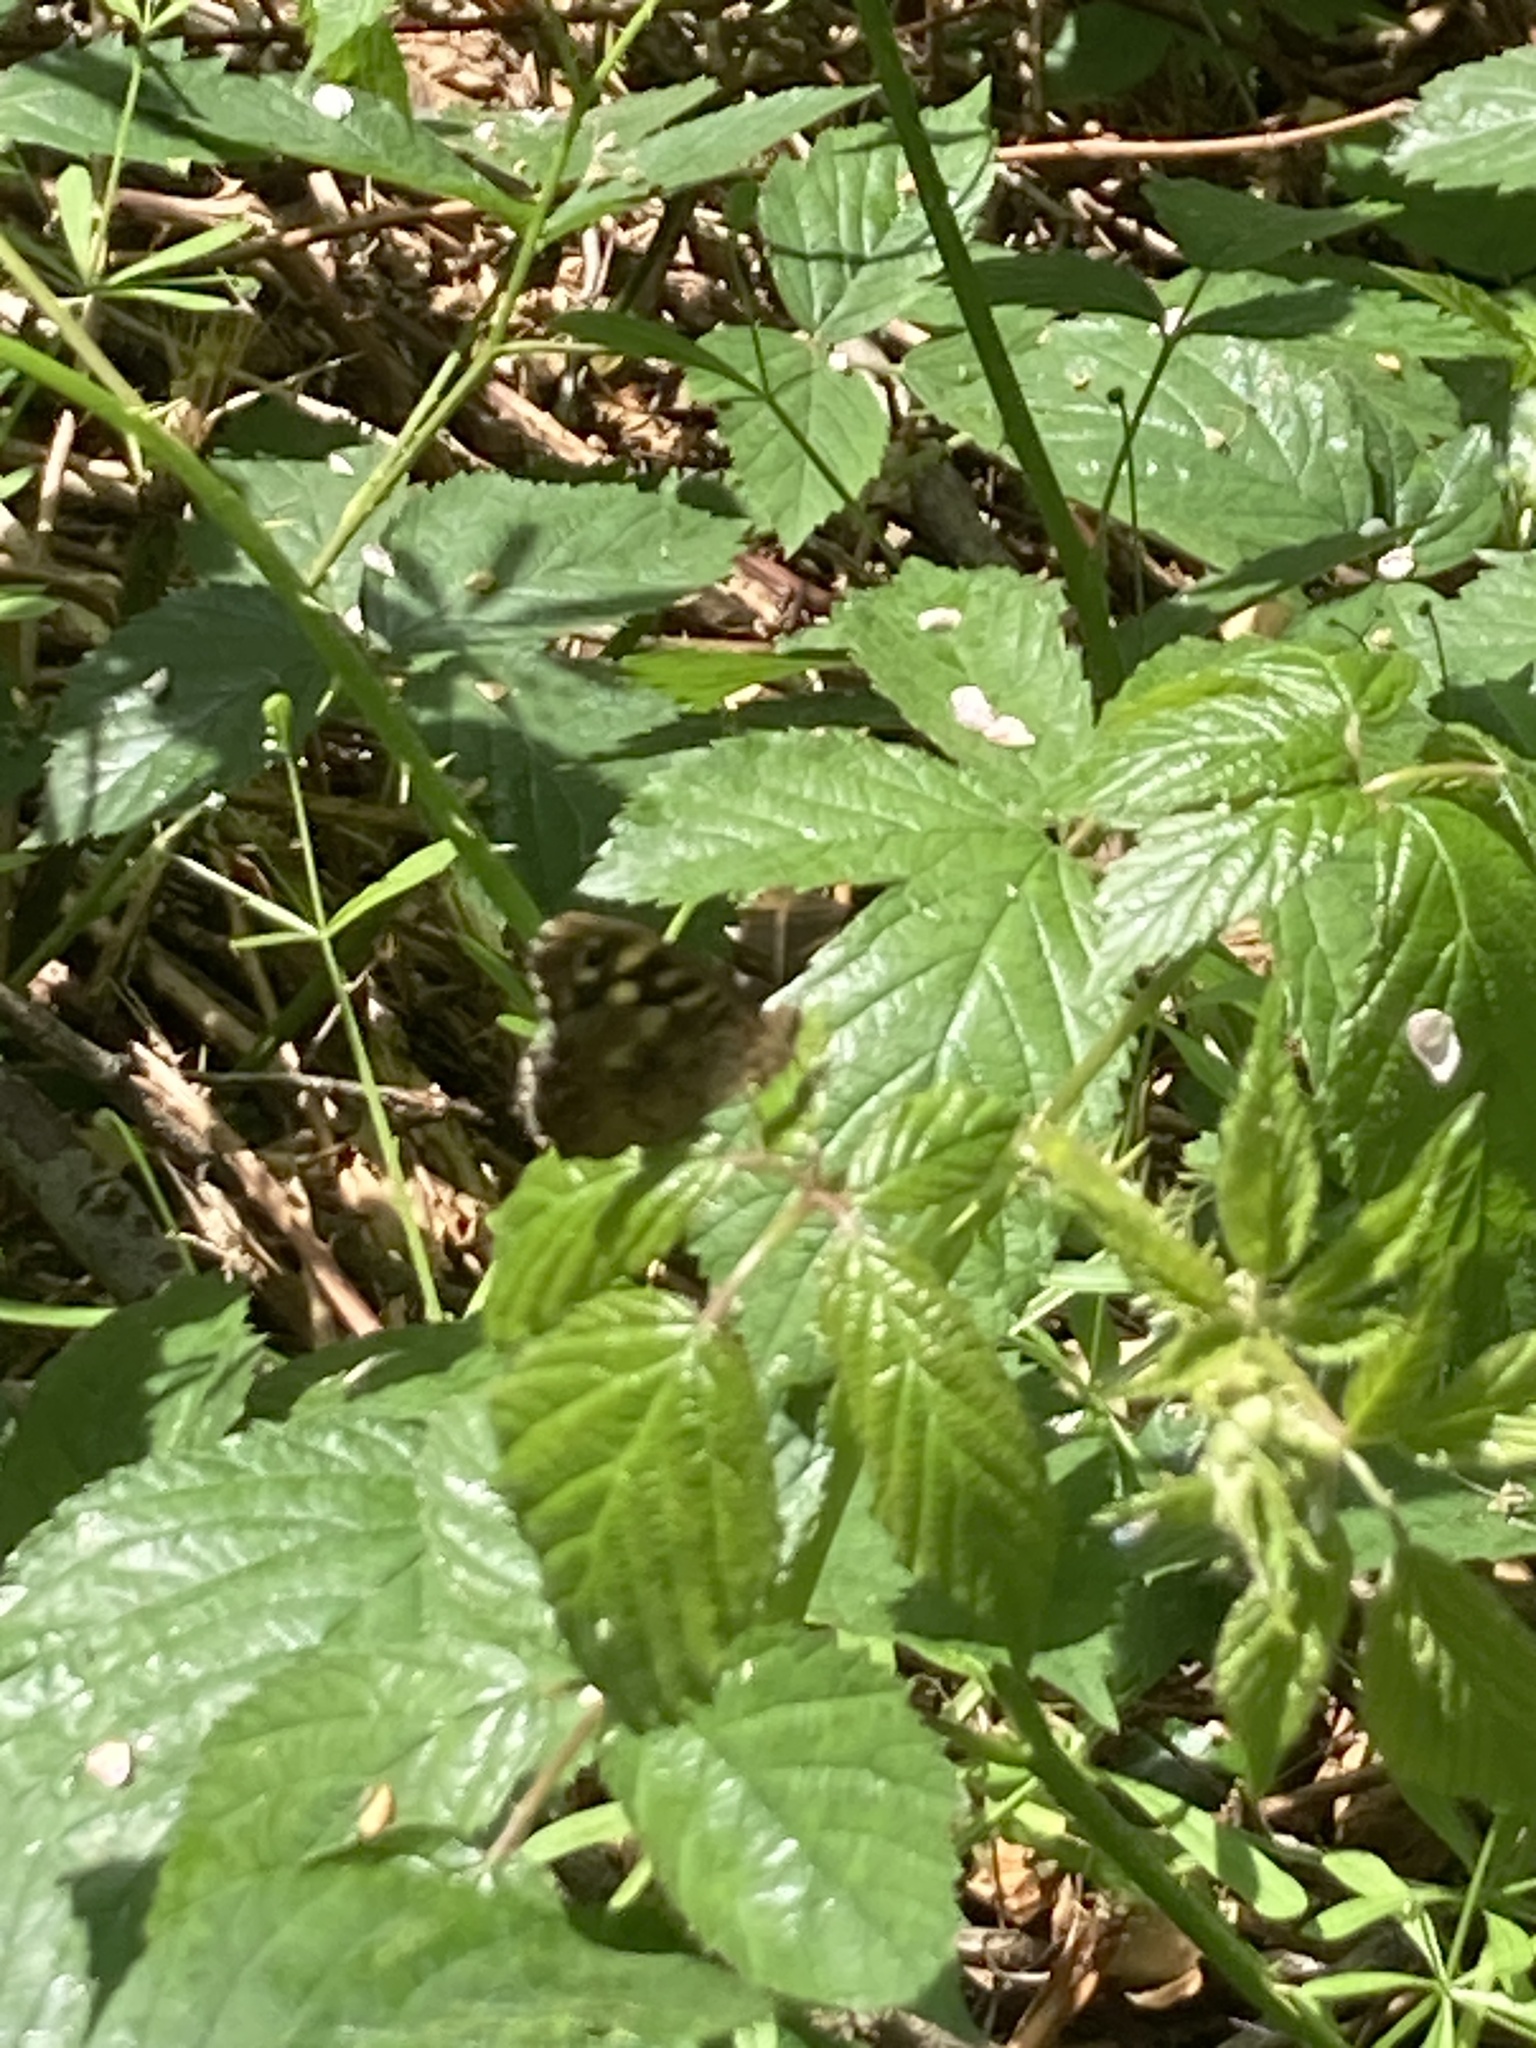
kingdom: Animalia
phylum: Arthropoda
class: Insecta
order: Lepidoptera
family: Nymphalidae
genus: Pararge
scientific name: Pararge aegeria
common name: Speckled wood
